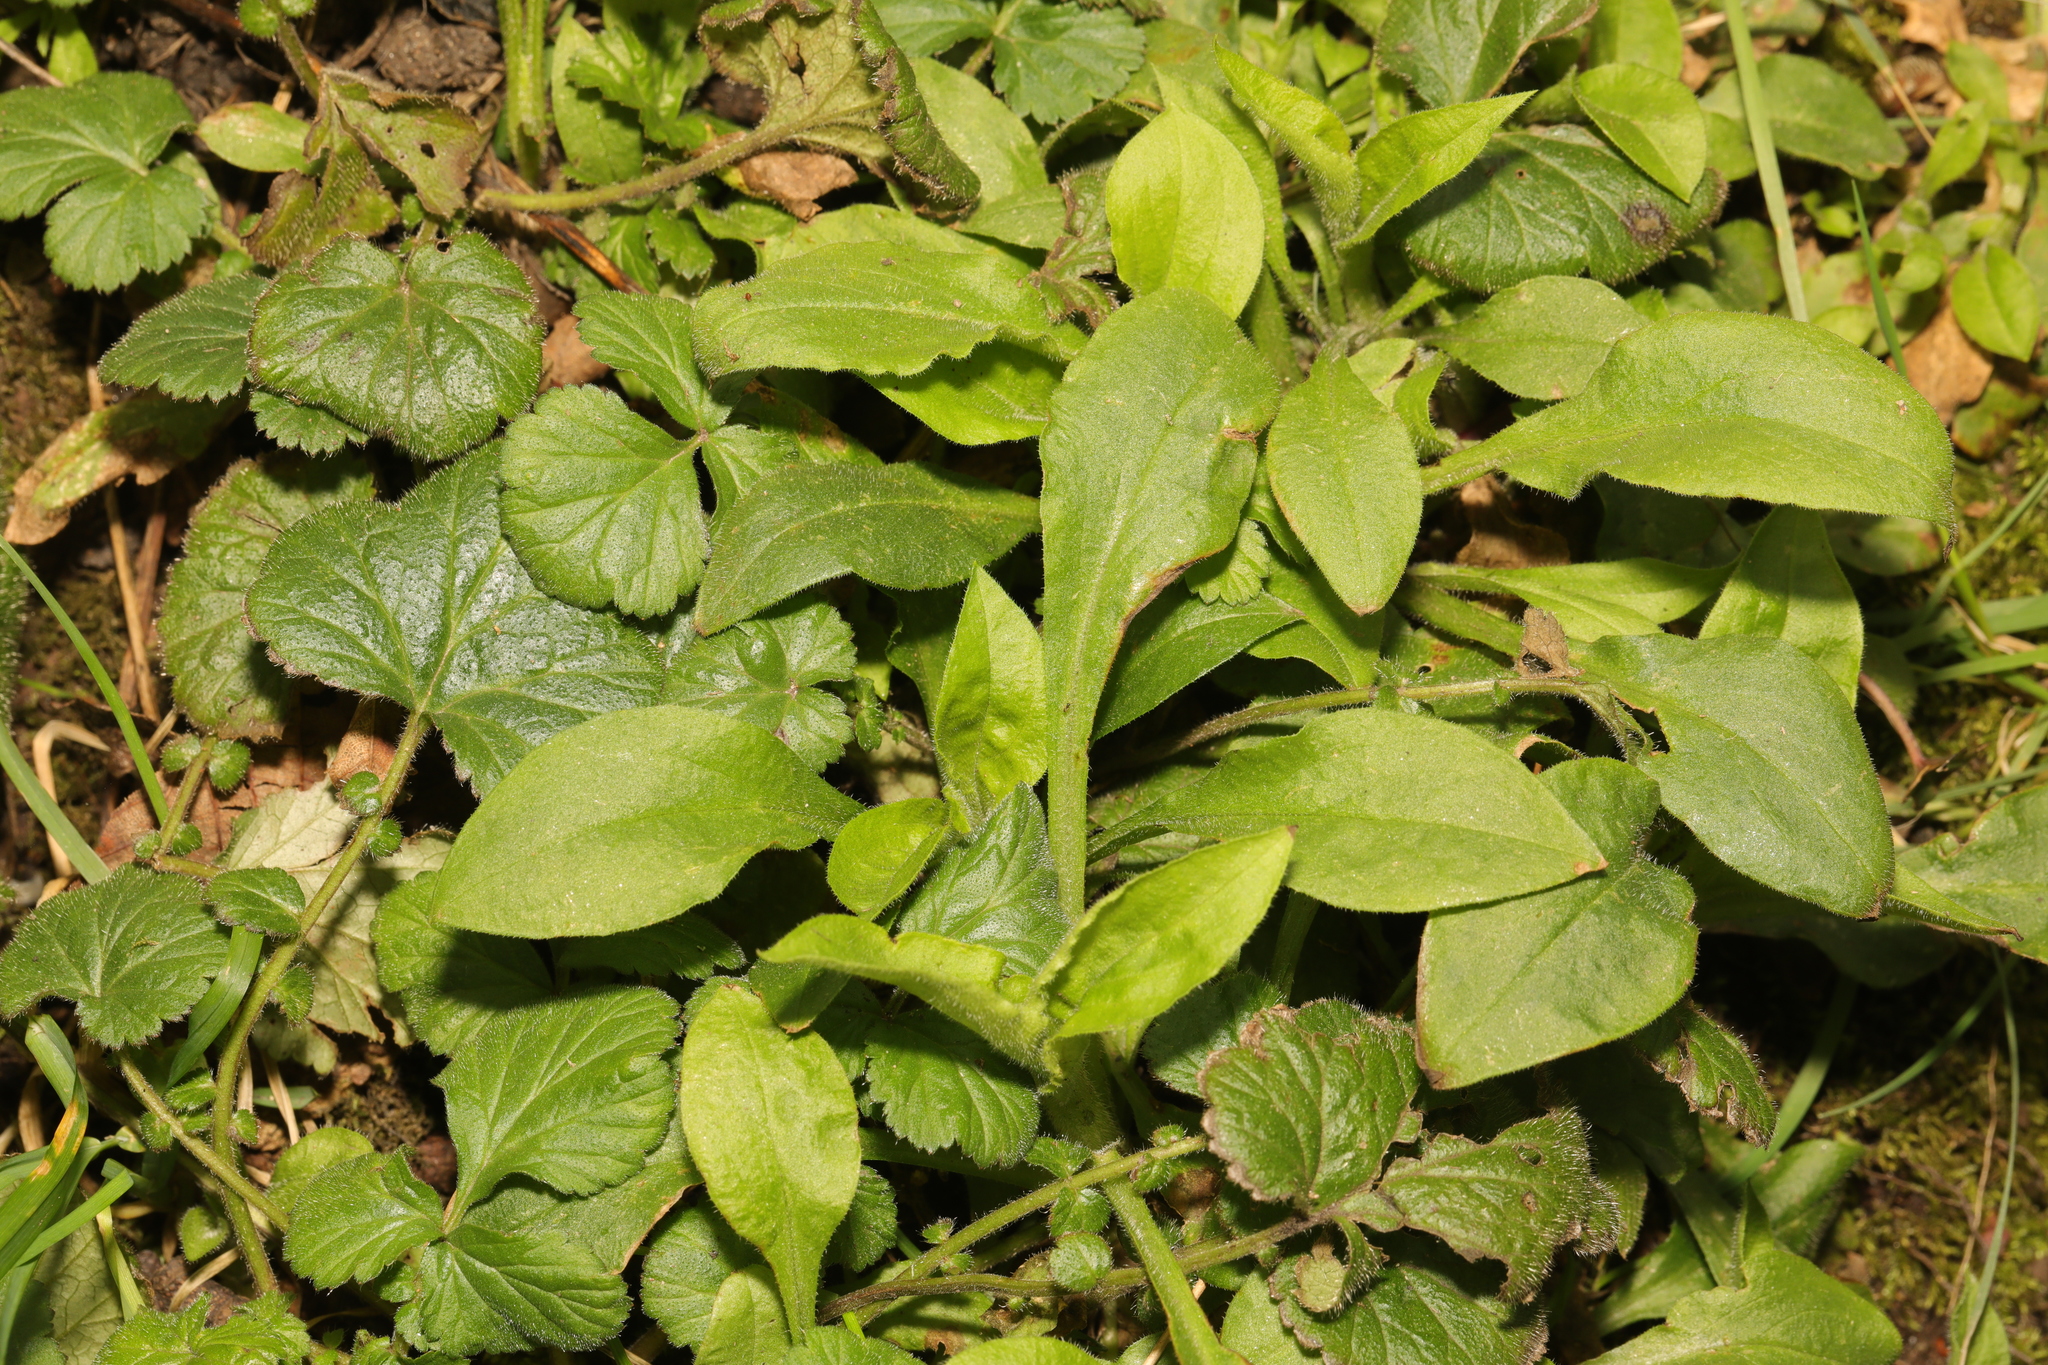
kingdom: Plantae
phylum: Tracheophyta
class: Magnoliopsida
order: Caryophyllales
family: Caryophyllaceae
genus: Silene
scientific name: Silene dioica
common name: Red campion
